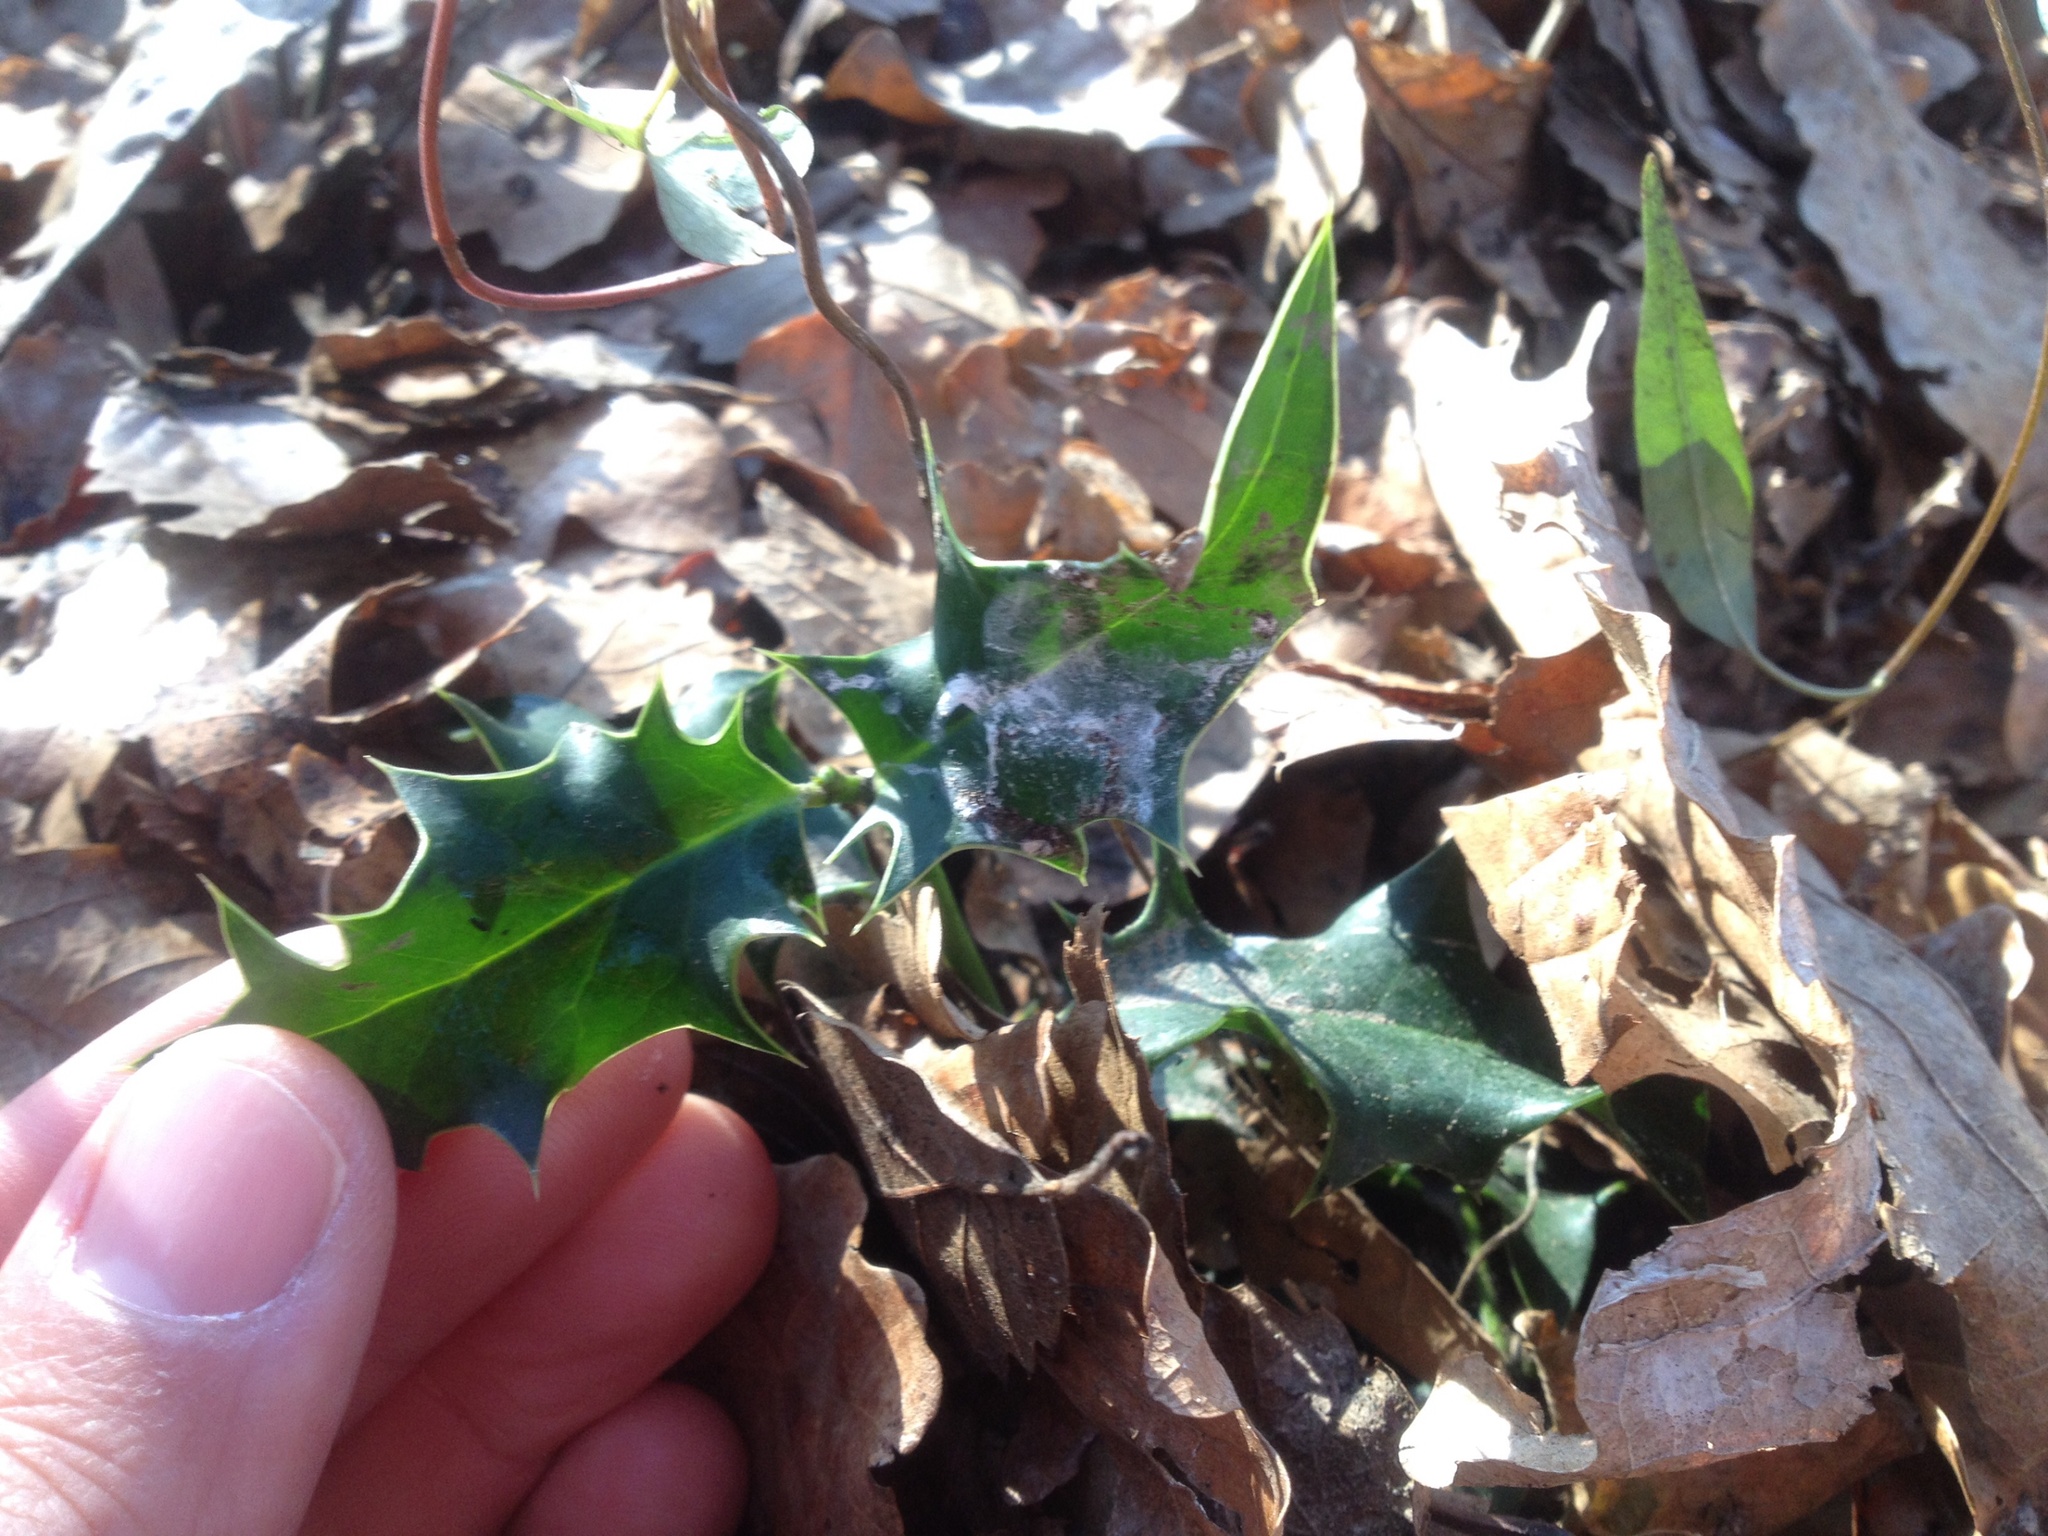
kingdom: Plantae
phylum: Tracheophyta
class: Magnoliopsida
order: Aquifoliales
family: Aquifoliaceae
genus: Ilex
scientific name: Ilex aquifolium
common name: English holly
